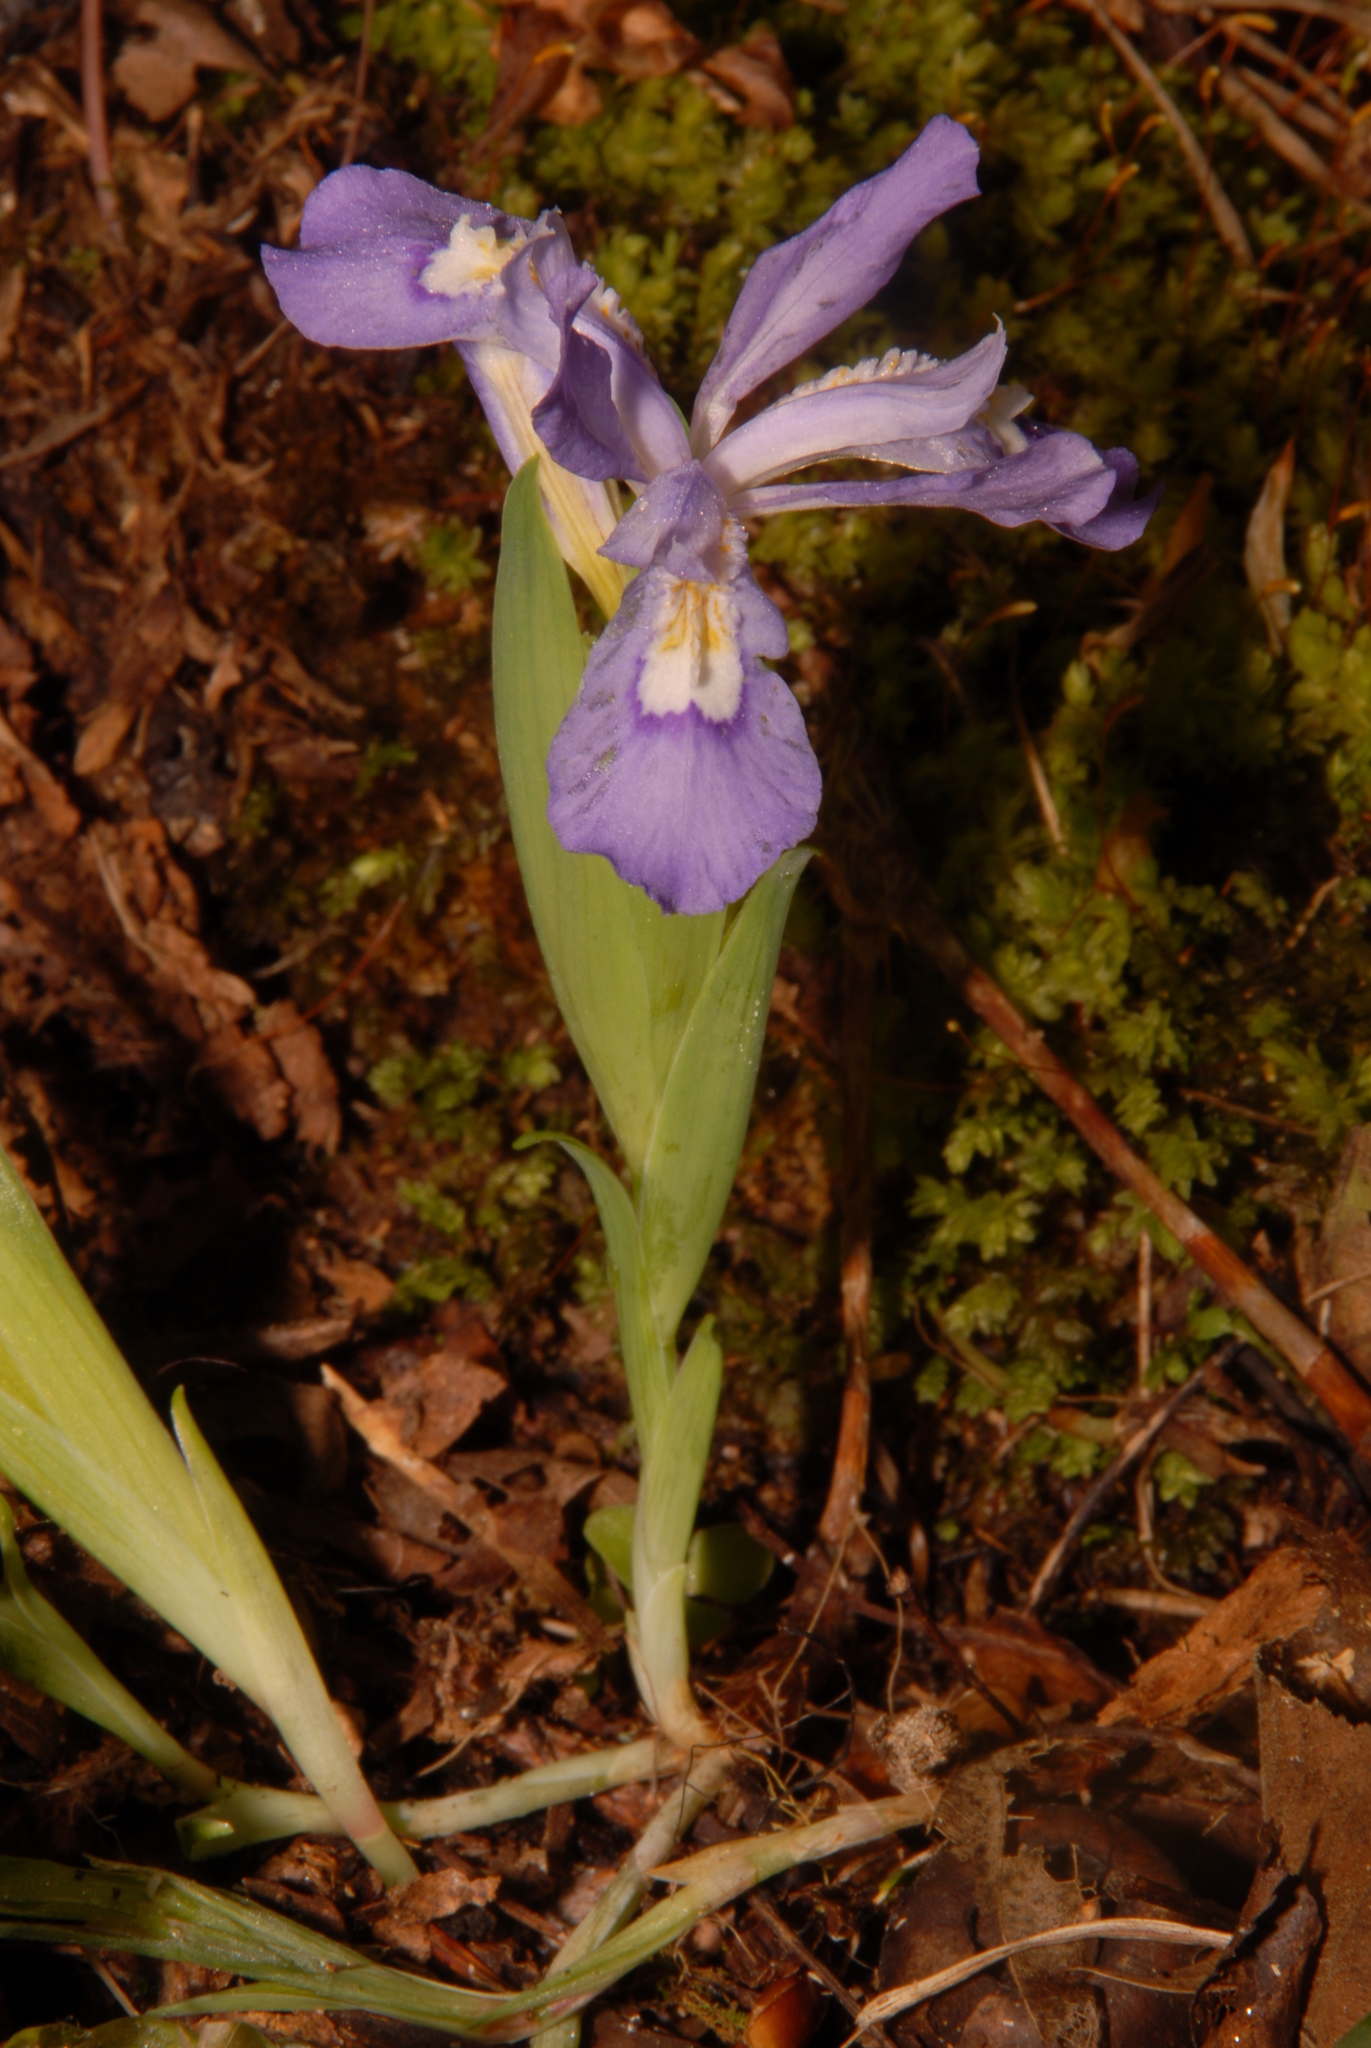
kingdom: Plantae
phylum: Tracheophyta
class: Liliopsida
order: Asparagales
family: Iridaceae
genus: Iris
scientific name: Iris cristata
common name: Crested iris
